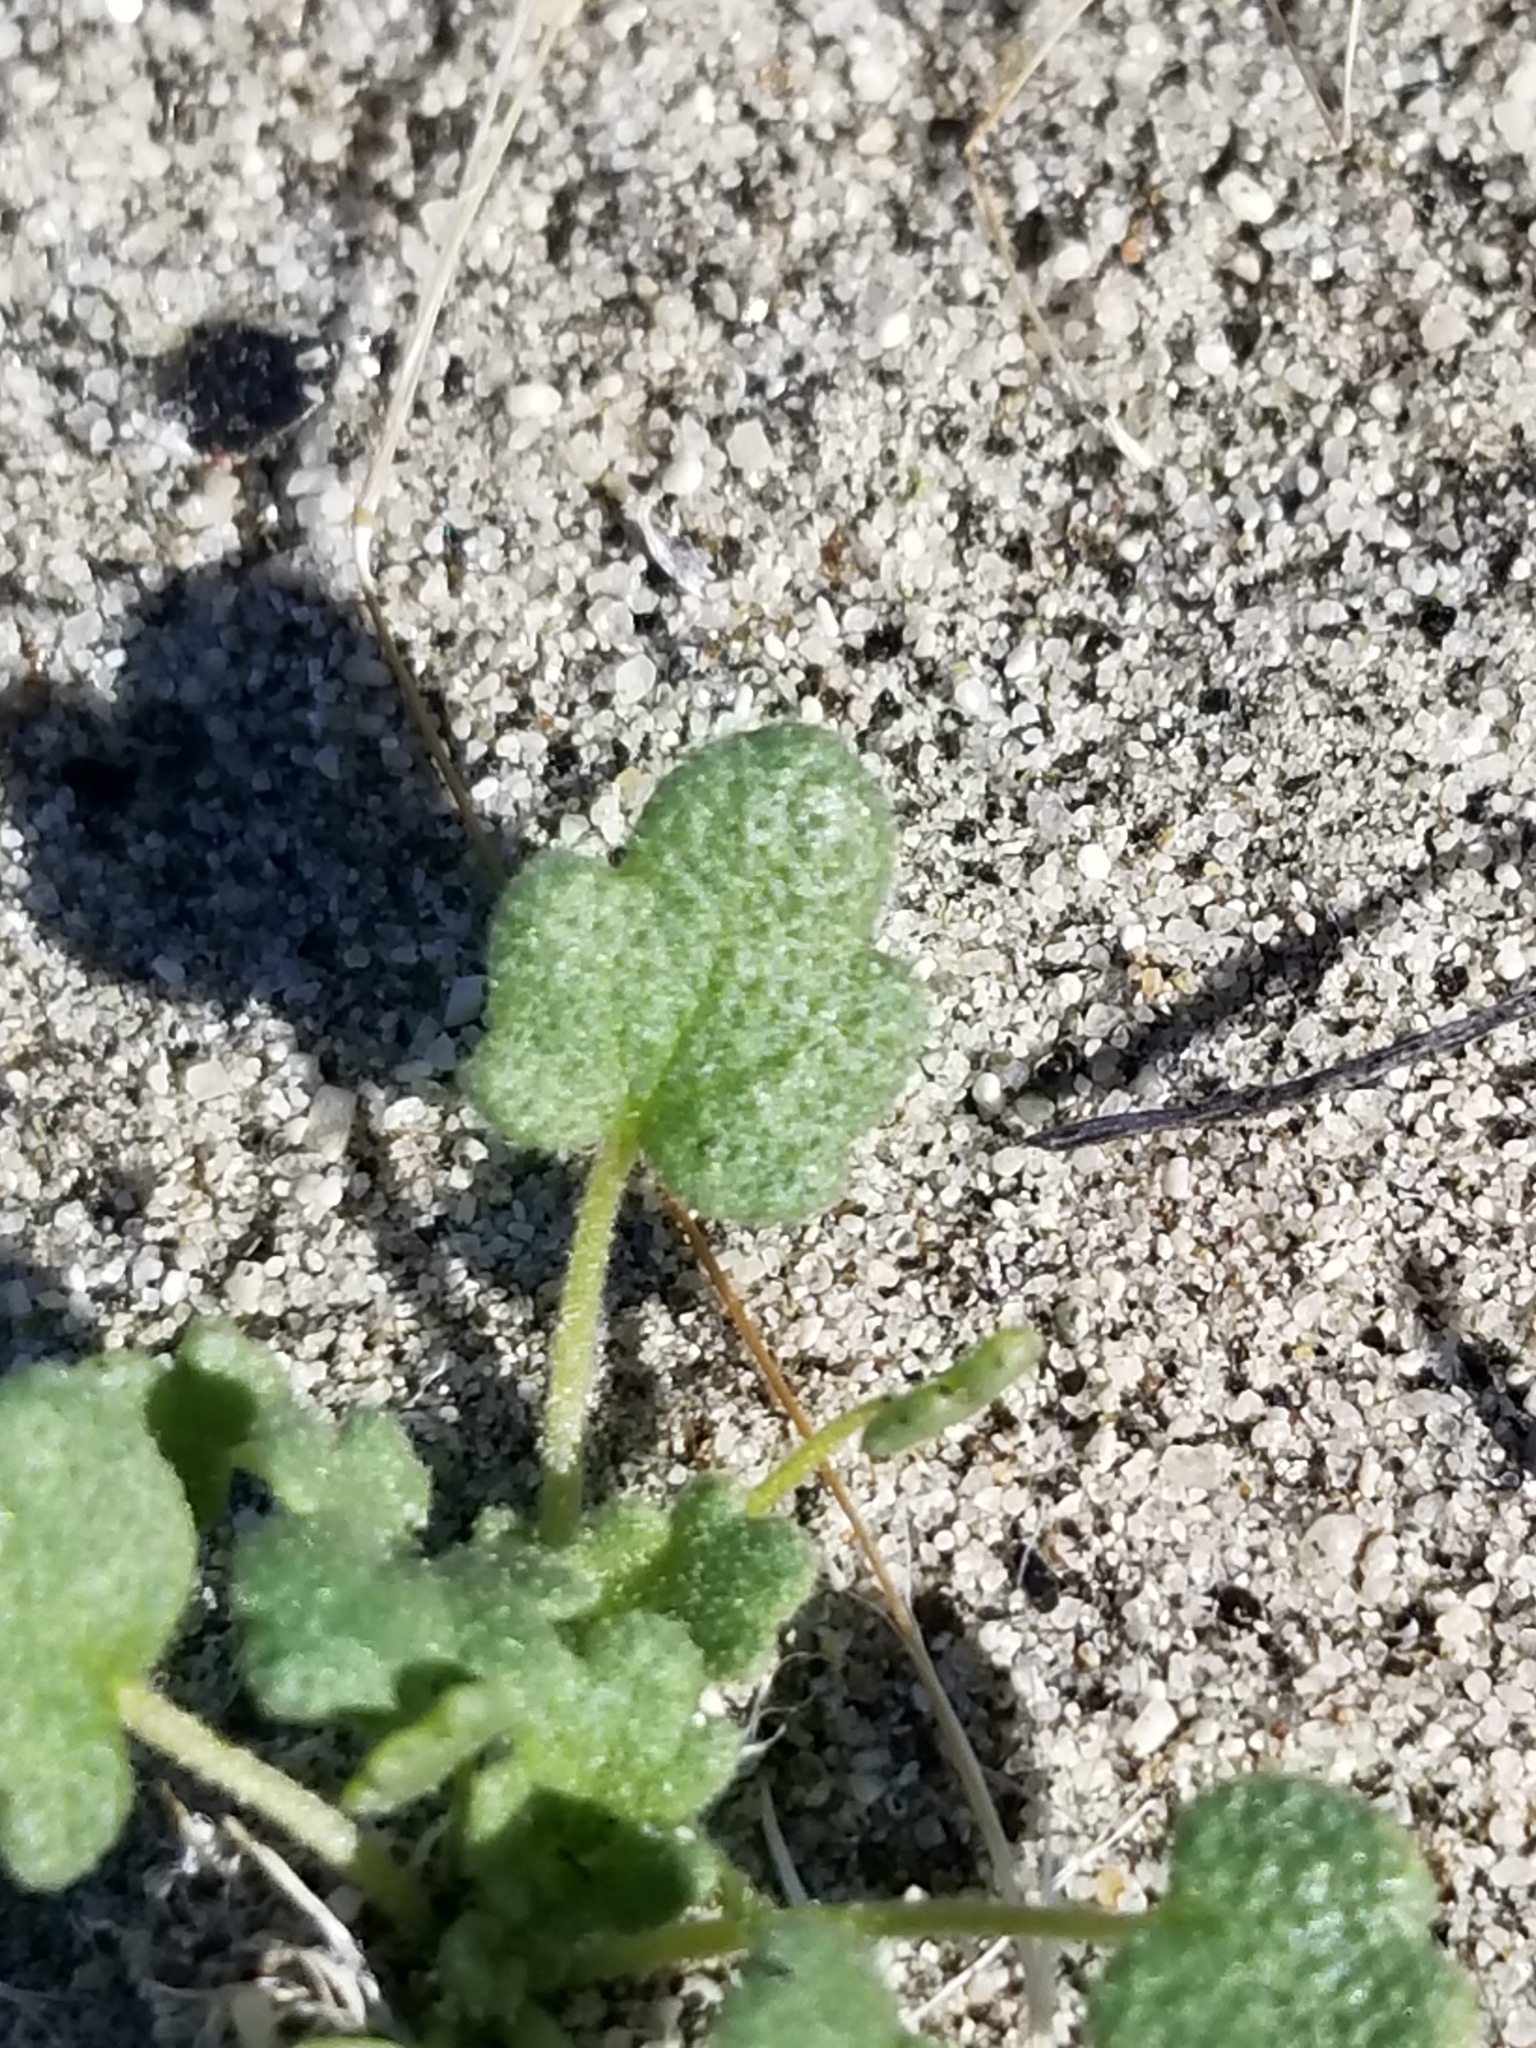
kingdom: Plantae
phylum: Tracheophyta
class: Magnoliopsida
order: Malvales
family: Malvaceae
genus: Eremalche
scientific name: Eremalche exilis
